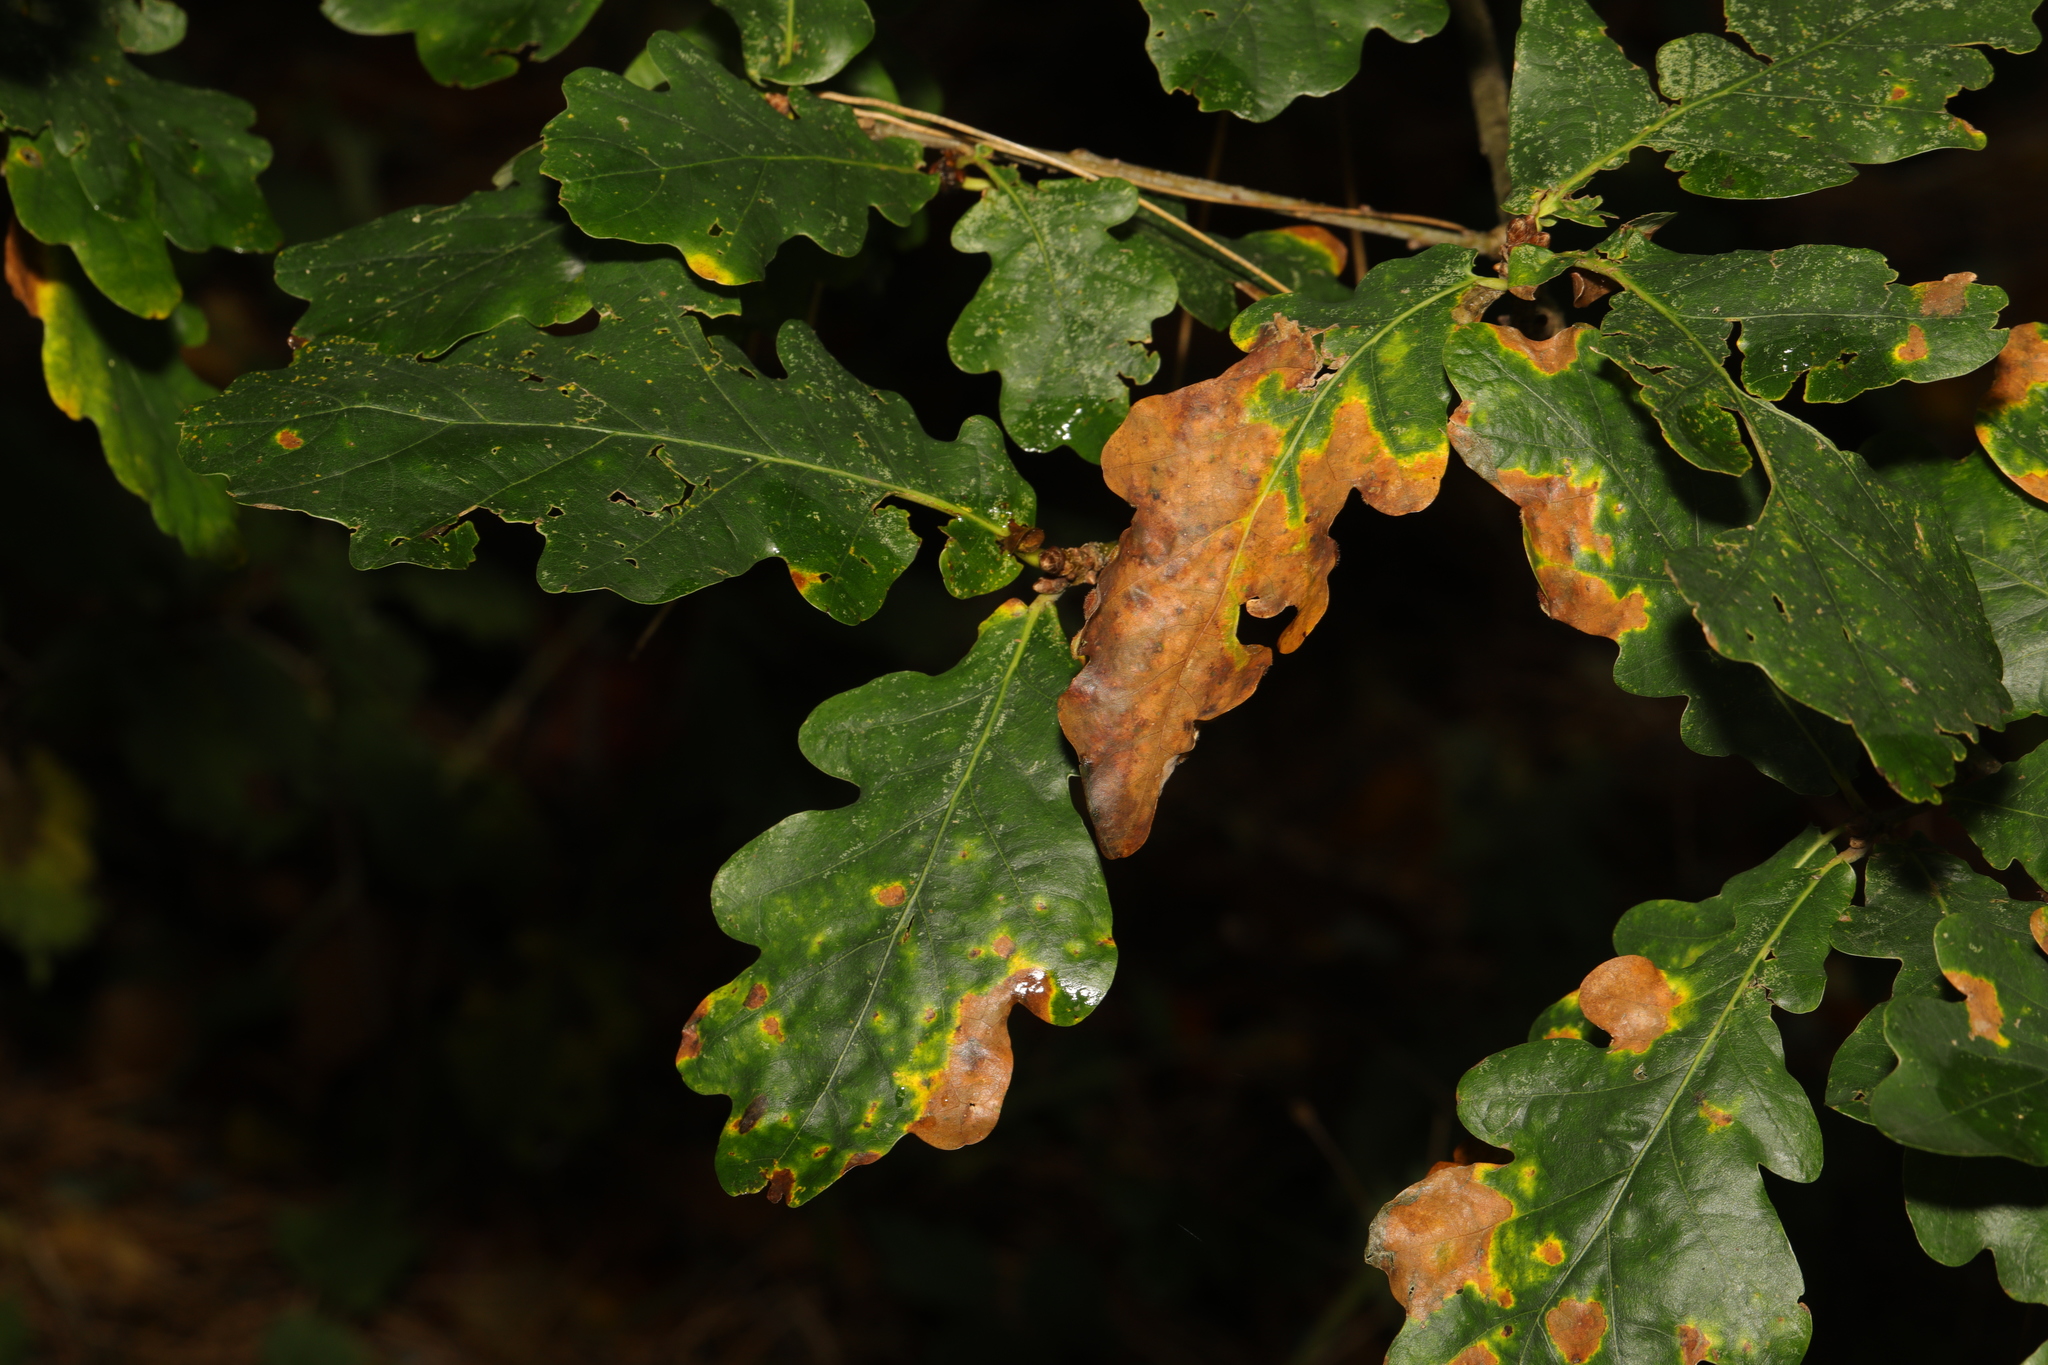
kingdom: Plantae
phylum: Tracheophyta
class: Magnoliopsida
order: Fagales
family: Fagaceae
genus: Quercus
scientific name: Quercus robur
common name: Pedunculate oak
